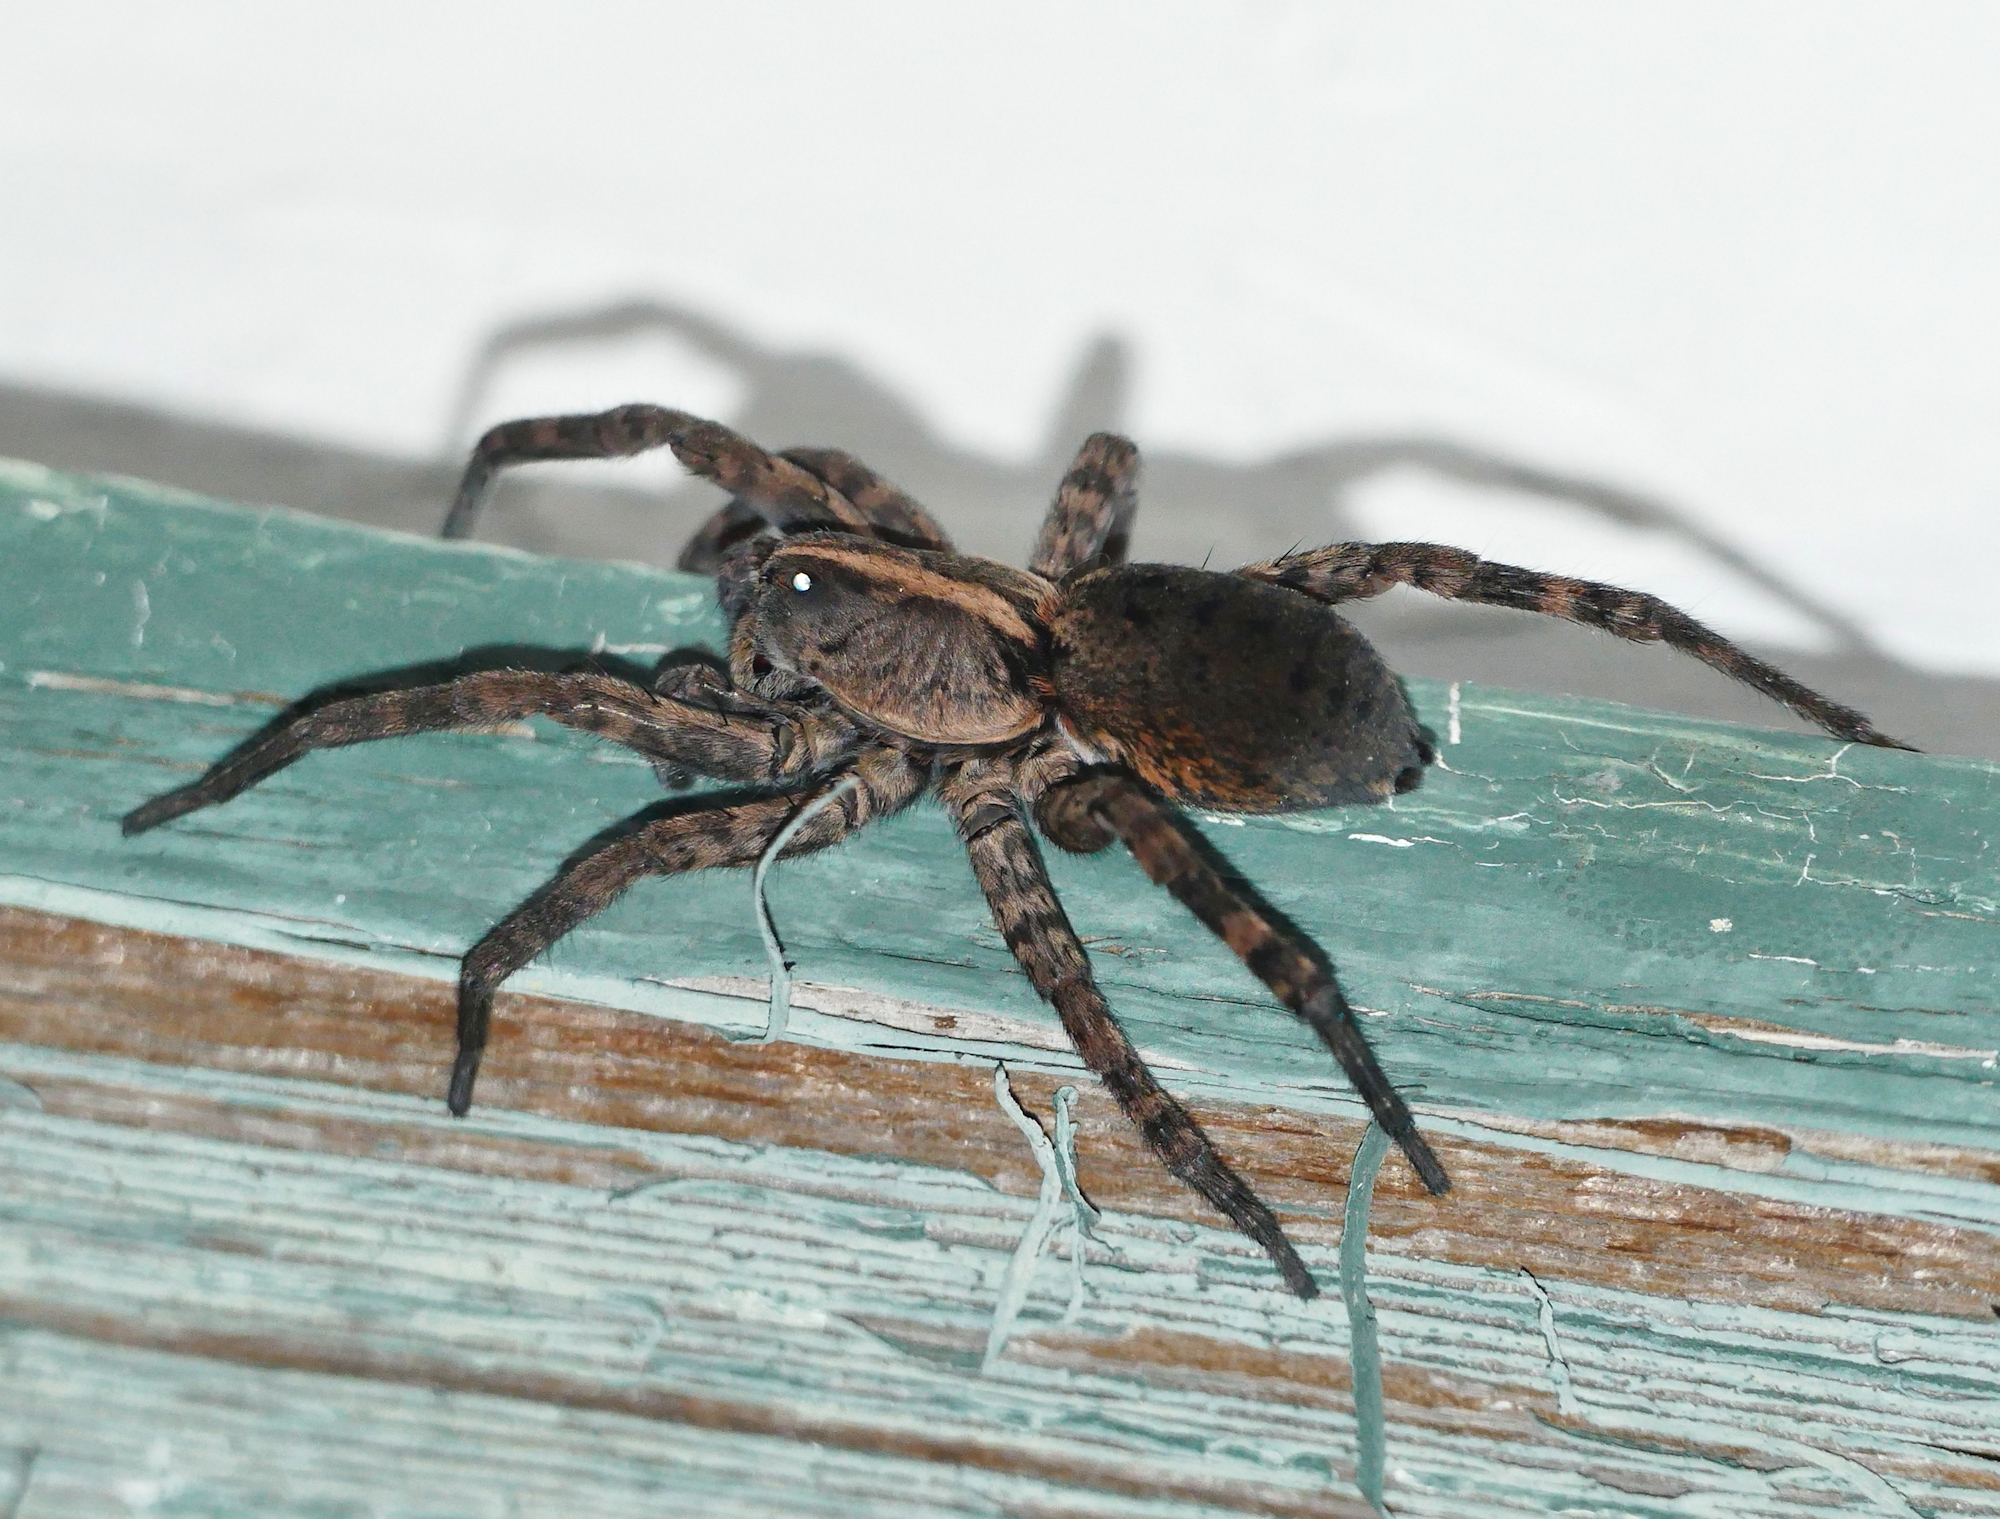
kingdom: Animalia
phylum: Arthropoda
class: Arachnida
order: Araneae
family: Lycosidae
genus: Tigrosa
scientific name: Tigrosa georgicola
